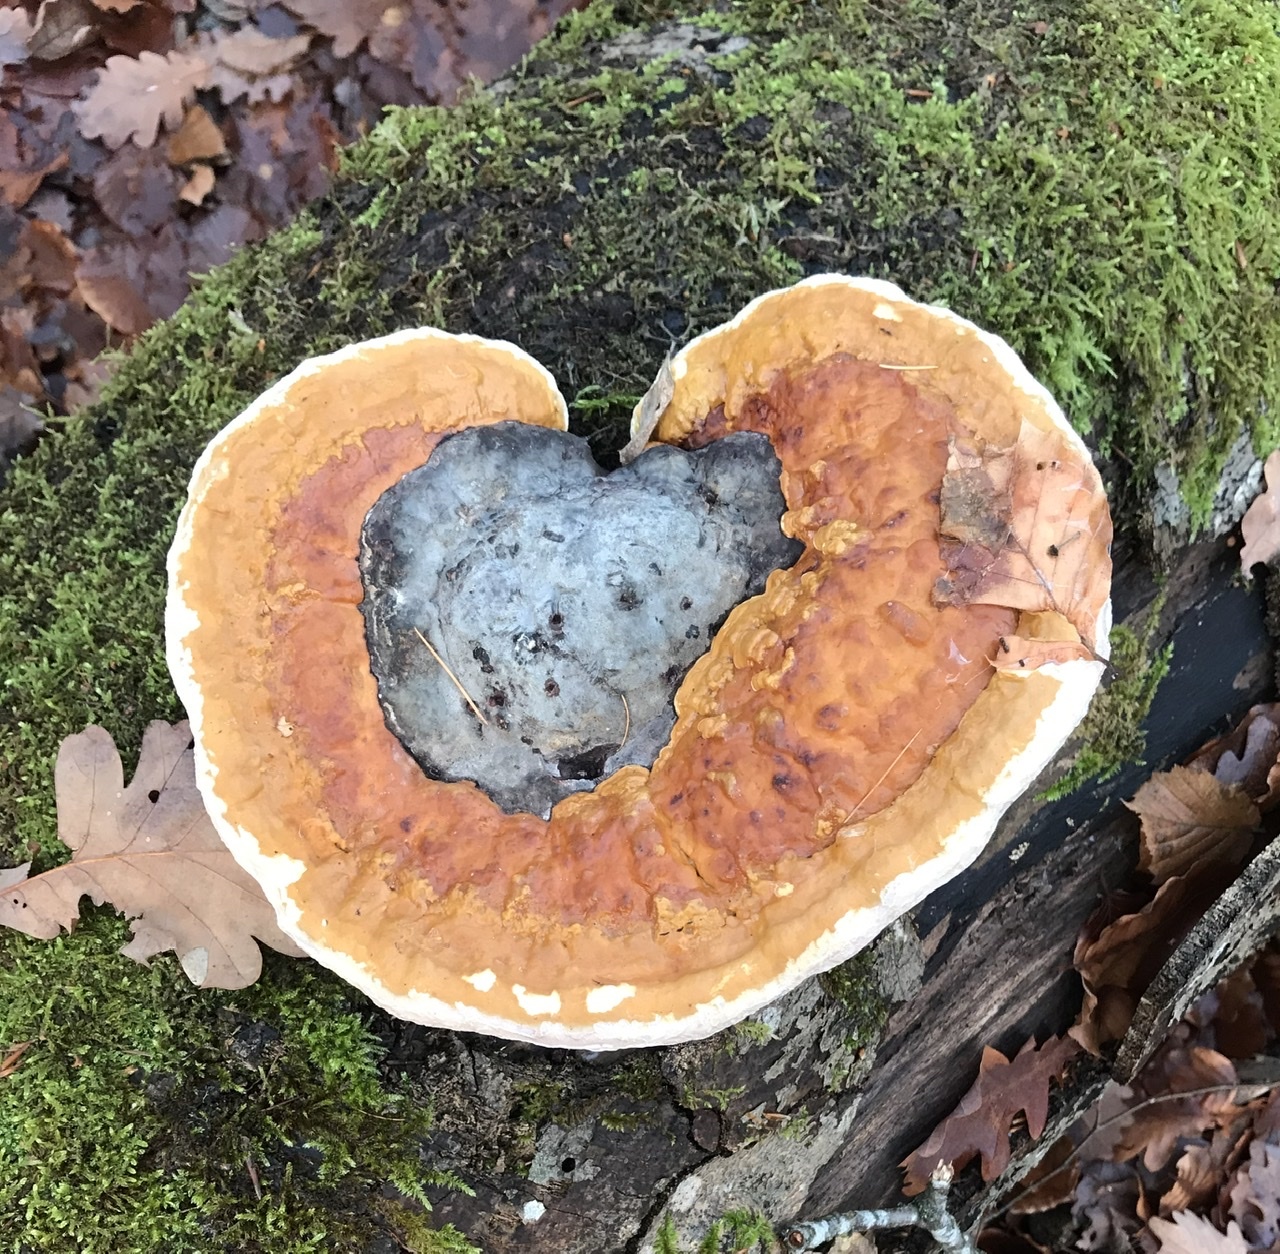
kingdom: Fungi
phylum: Basidiomycota
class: Agaricomycetes
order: Polyporales
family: Fomitopsidaceae
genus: Fomitopsis
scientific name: Fomitopsis pinicola
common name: Red-belted bracket
